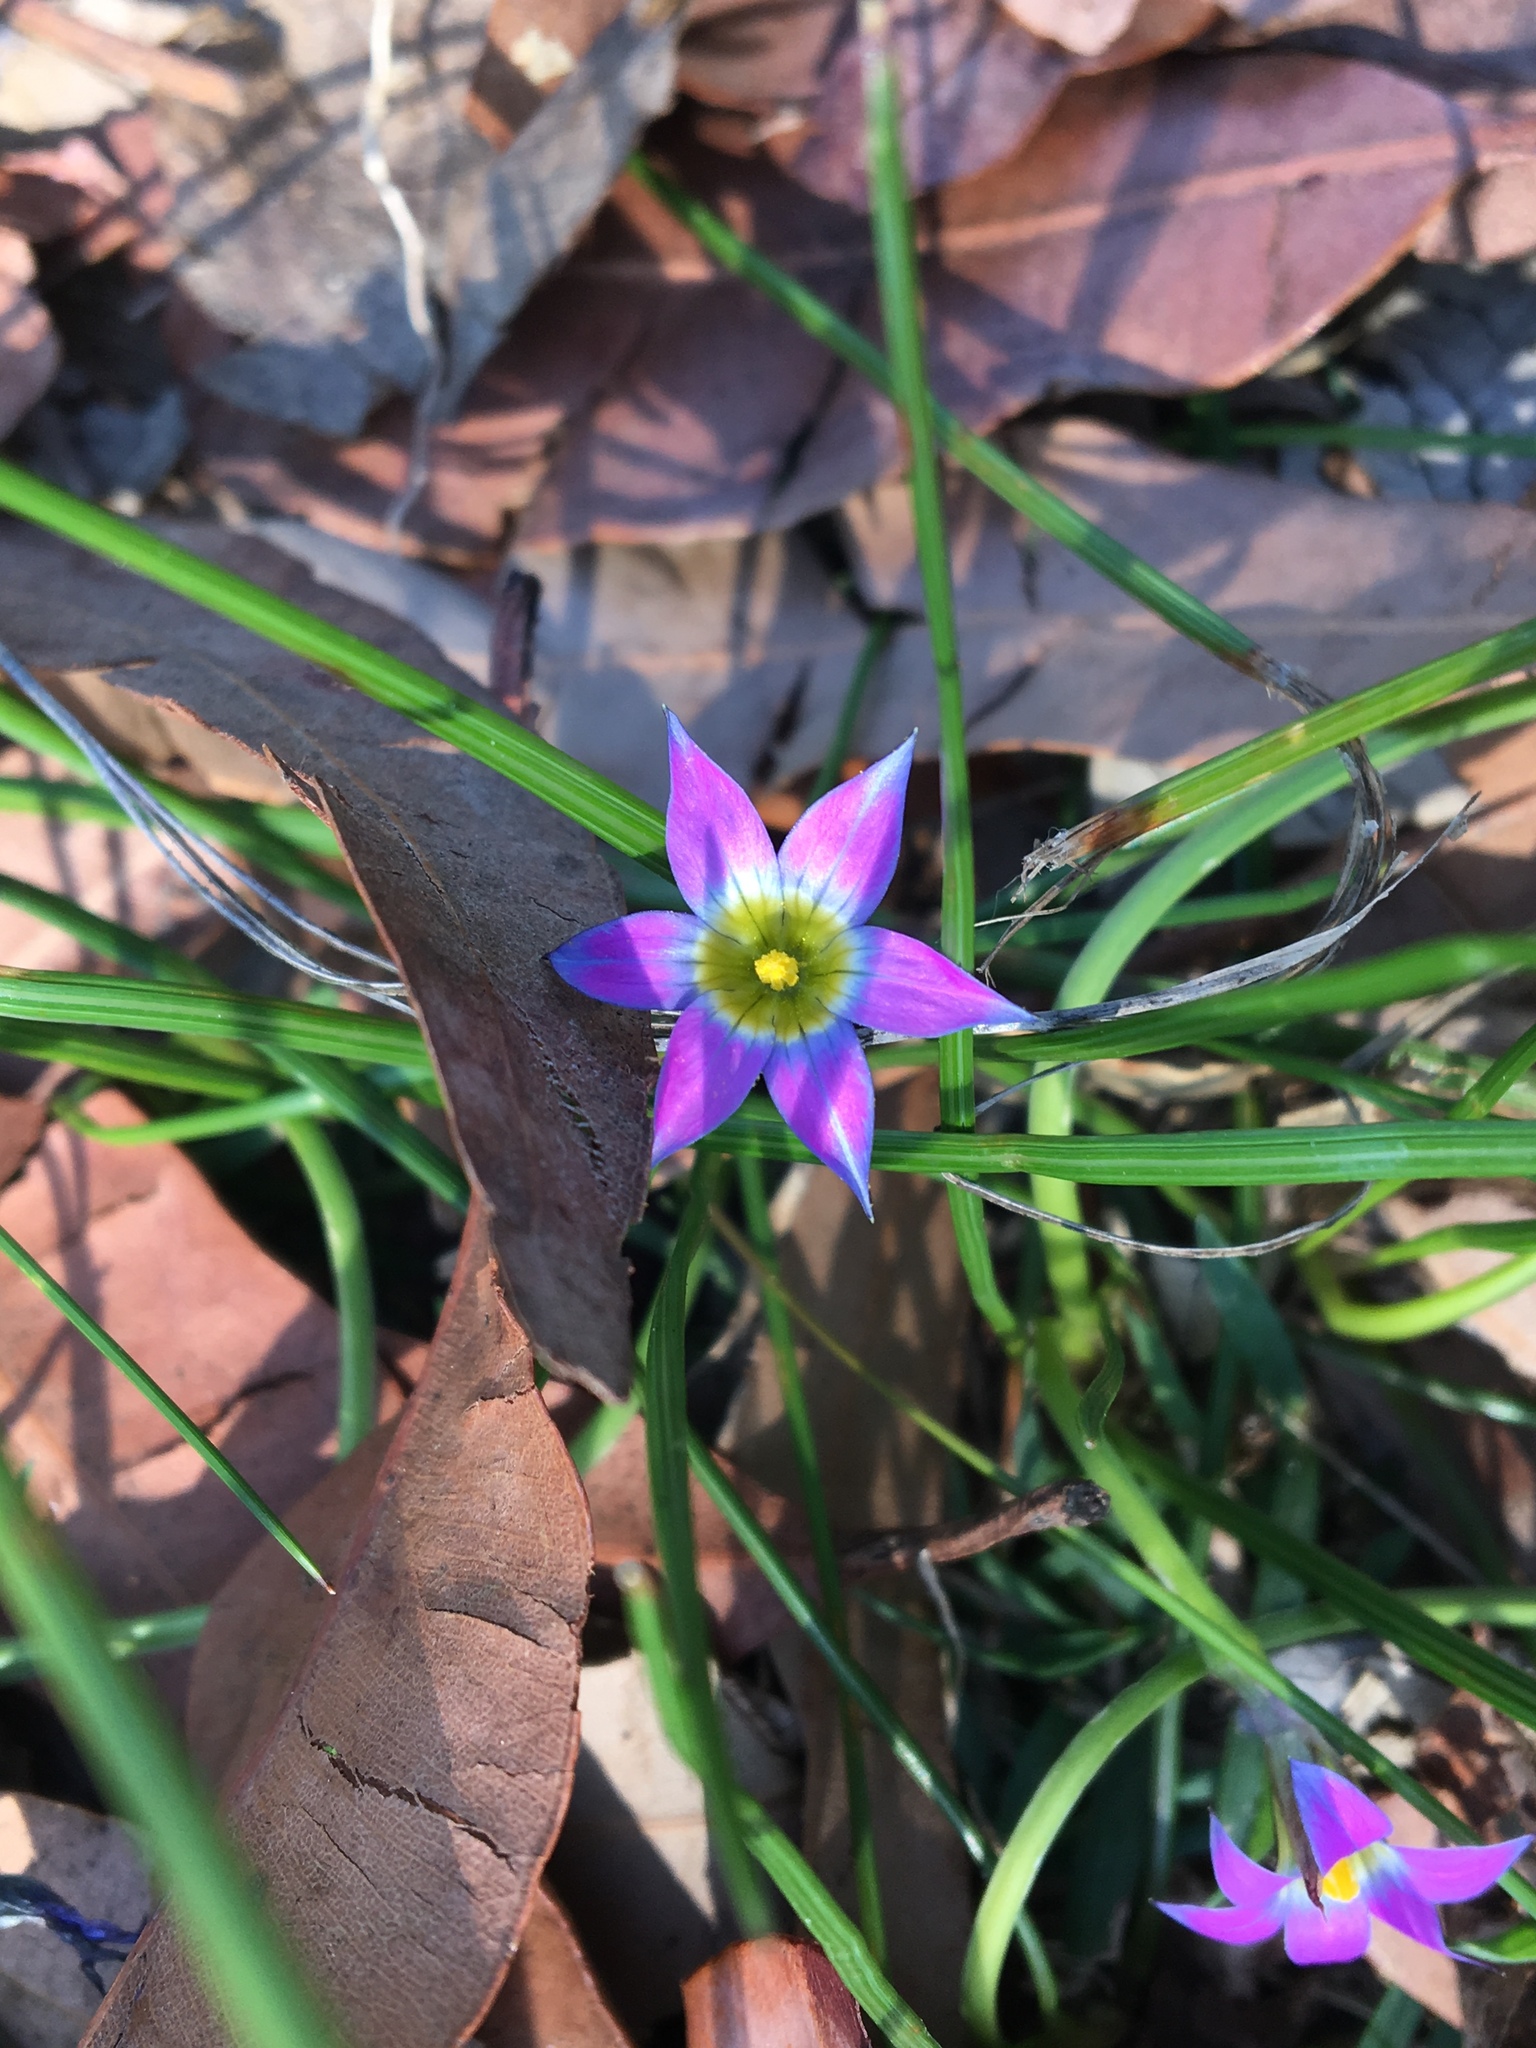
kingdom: Plantae
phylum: Tracheophyta
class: Liliopsida
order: Asparagales
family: Iridaceae
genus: Romulea
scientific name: Romulea rosea
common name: Oniongrass
